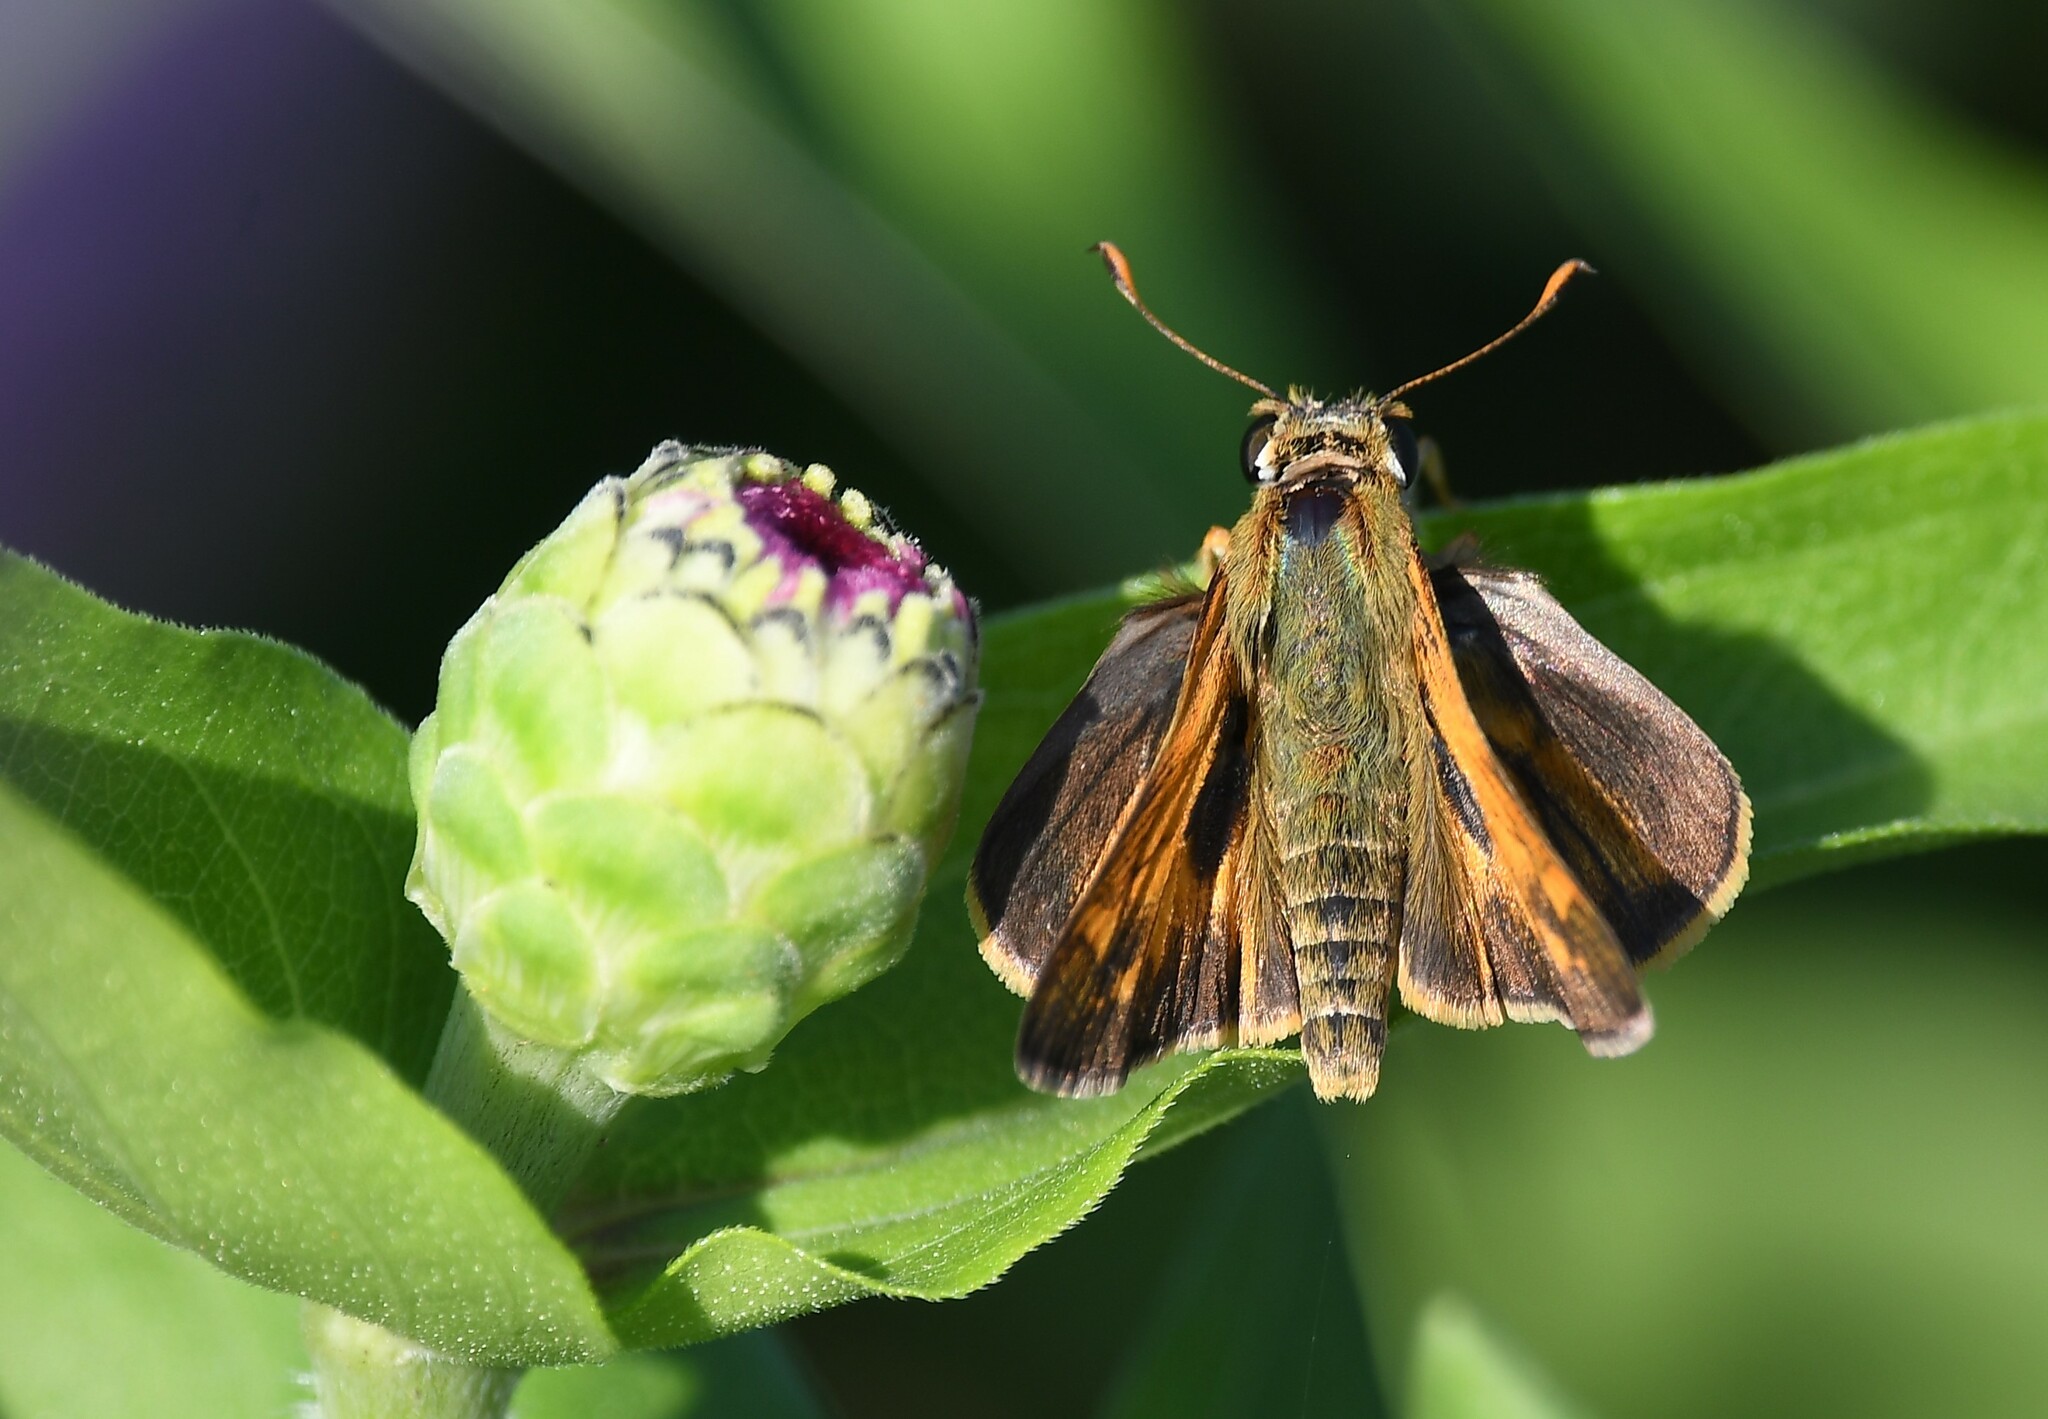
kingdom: Animalia
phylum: Arthropoda
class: Insecta
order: Lepidoptera
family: Hesperiidae
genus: Atalopedes
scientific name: Atalopedes
